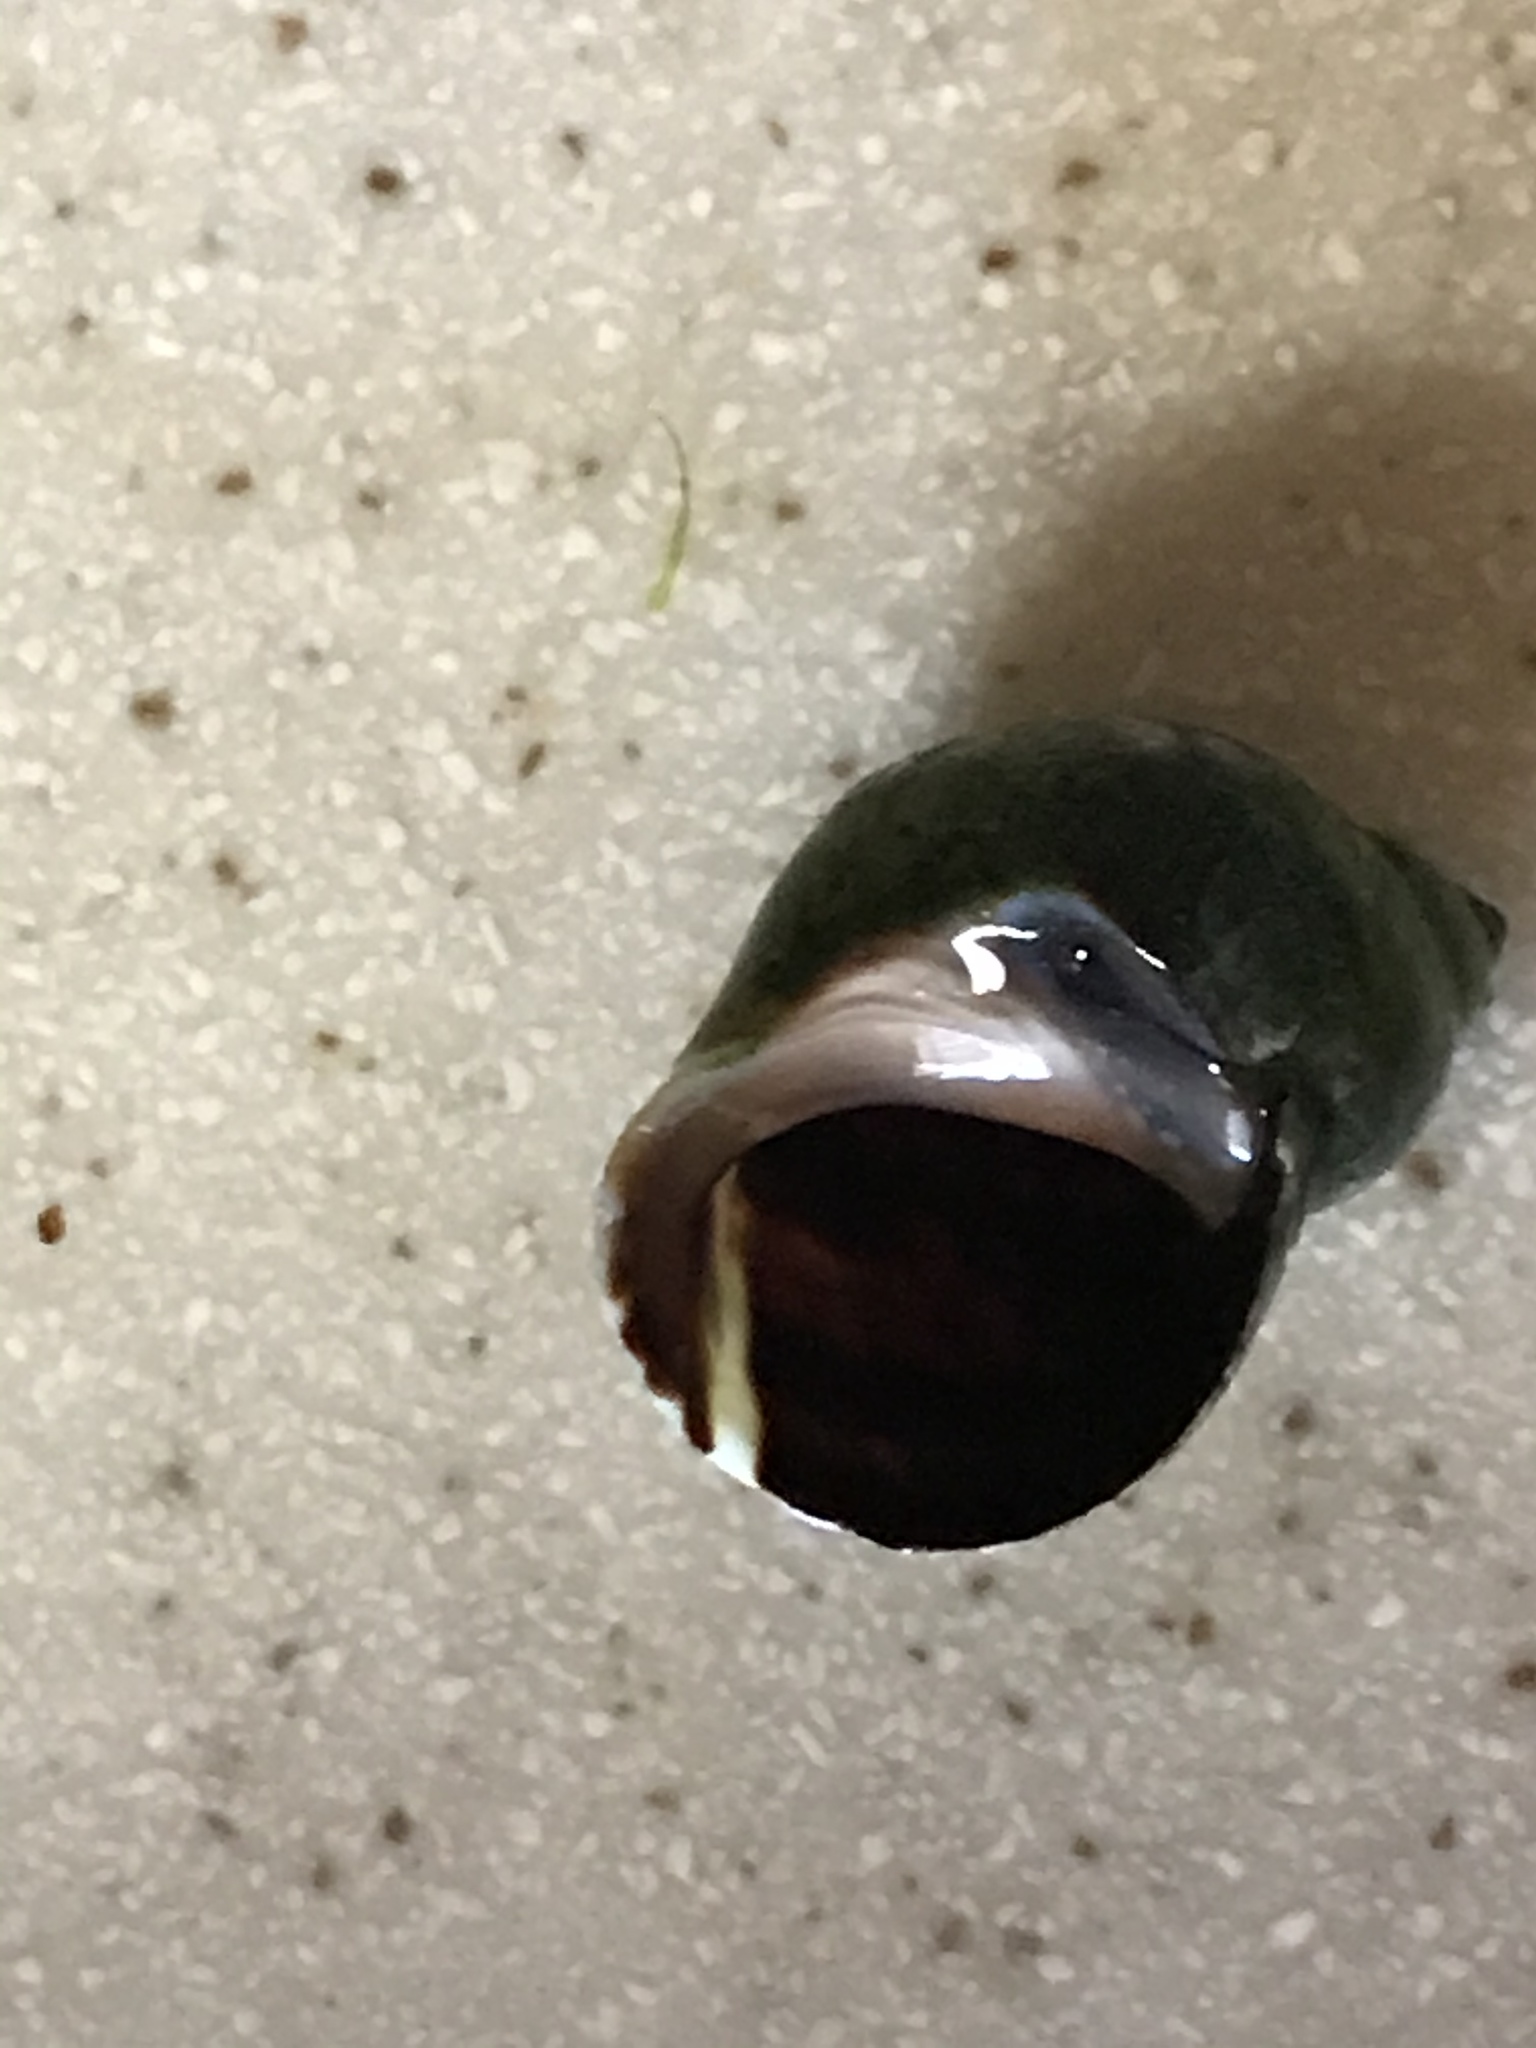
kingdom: Animalia
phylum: Mollusca
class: Gastropoda
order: Littorinimorpha
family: Littorinidae
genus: Littorina
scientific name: Littorina keenae
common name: Eroded periwinkle
